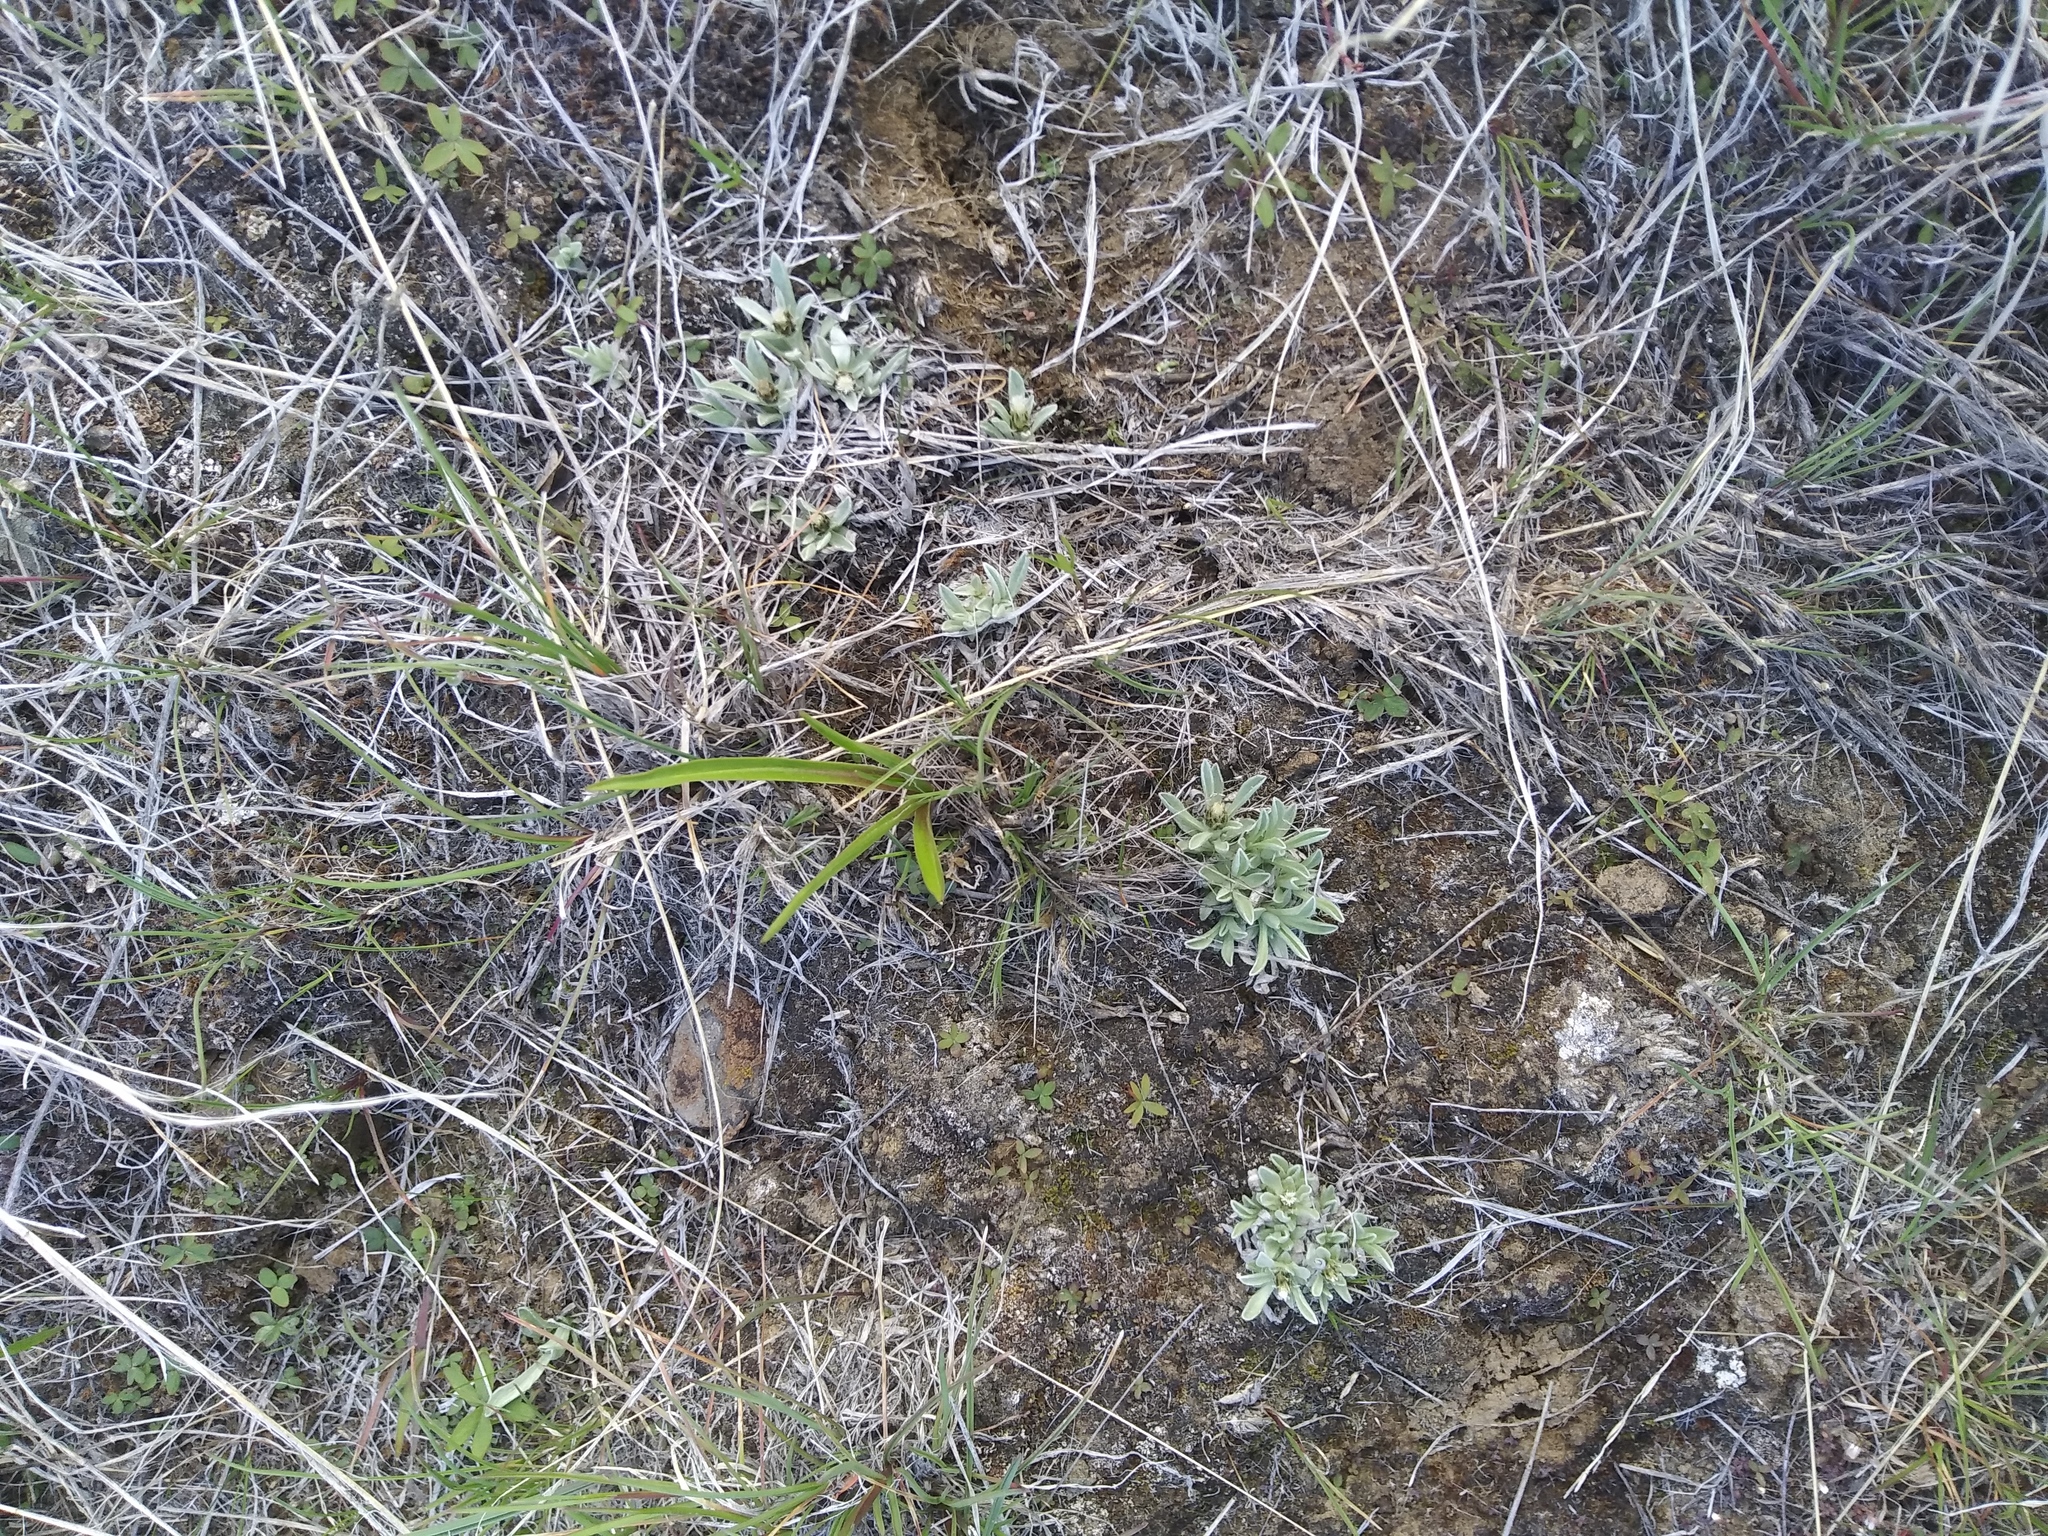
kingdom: Plantae
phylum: Tracheophyta
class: Magnoliopsida
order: Asterales
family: Asteraceae
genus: Antennaria
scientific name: Antennaria dimorpha
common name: Cushion pussytoes
